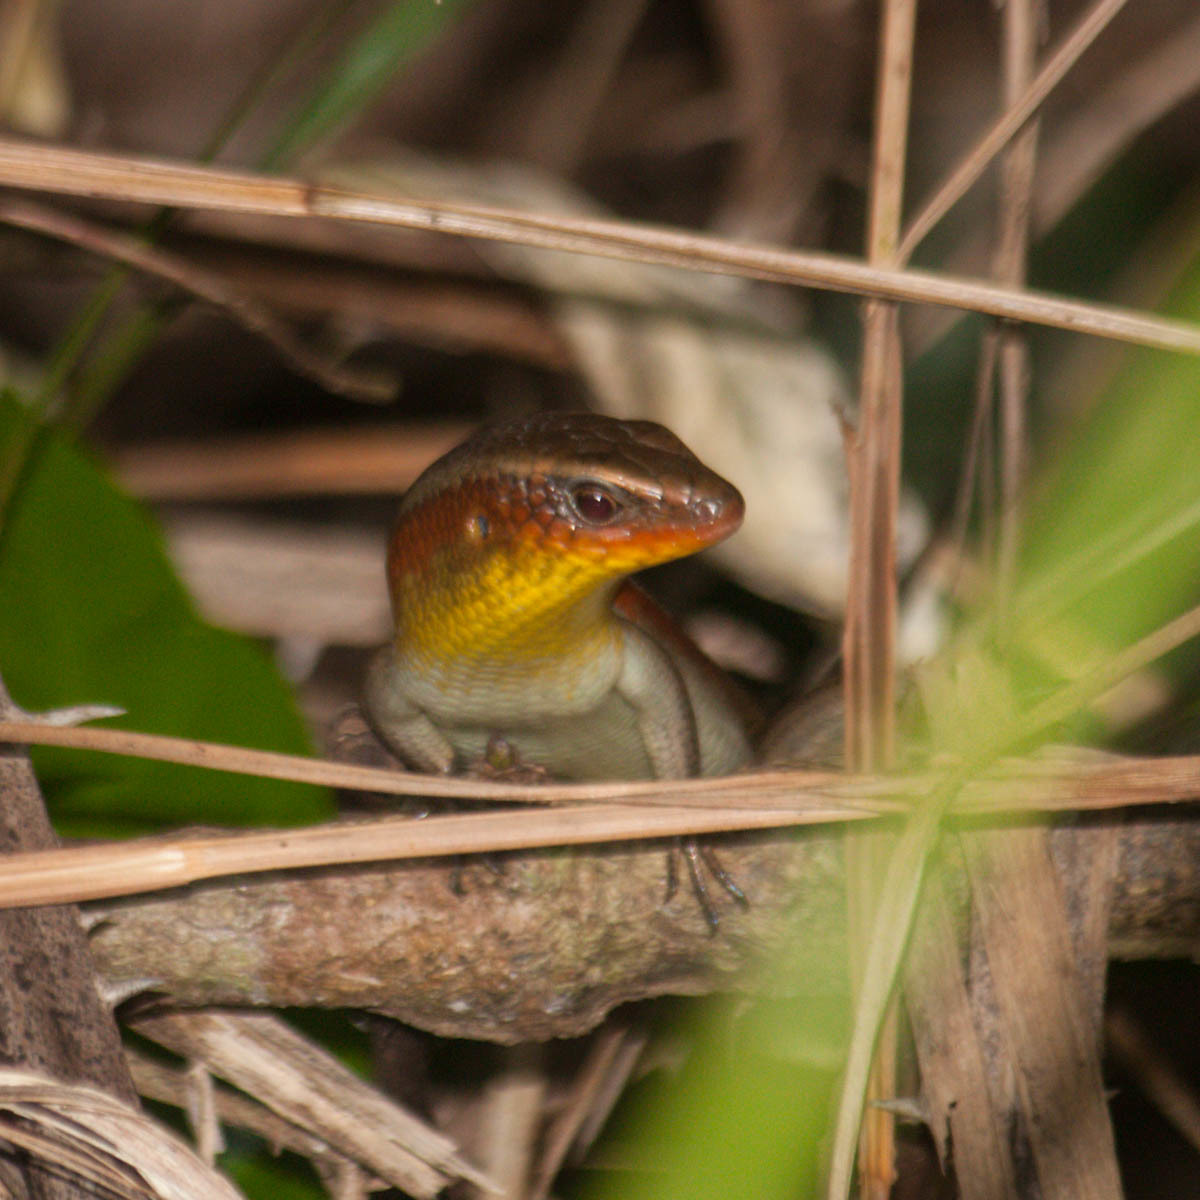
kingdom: Animalia
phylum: Chordata
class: Squamata
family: Scincidae
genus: Eutropis
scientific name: Eutropis multifasciata
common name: Common mabuya
